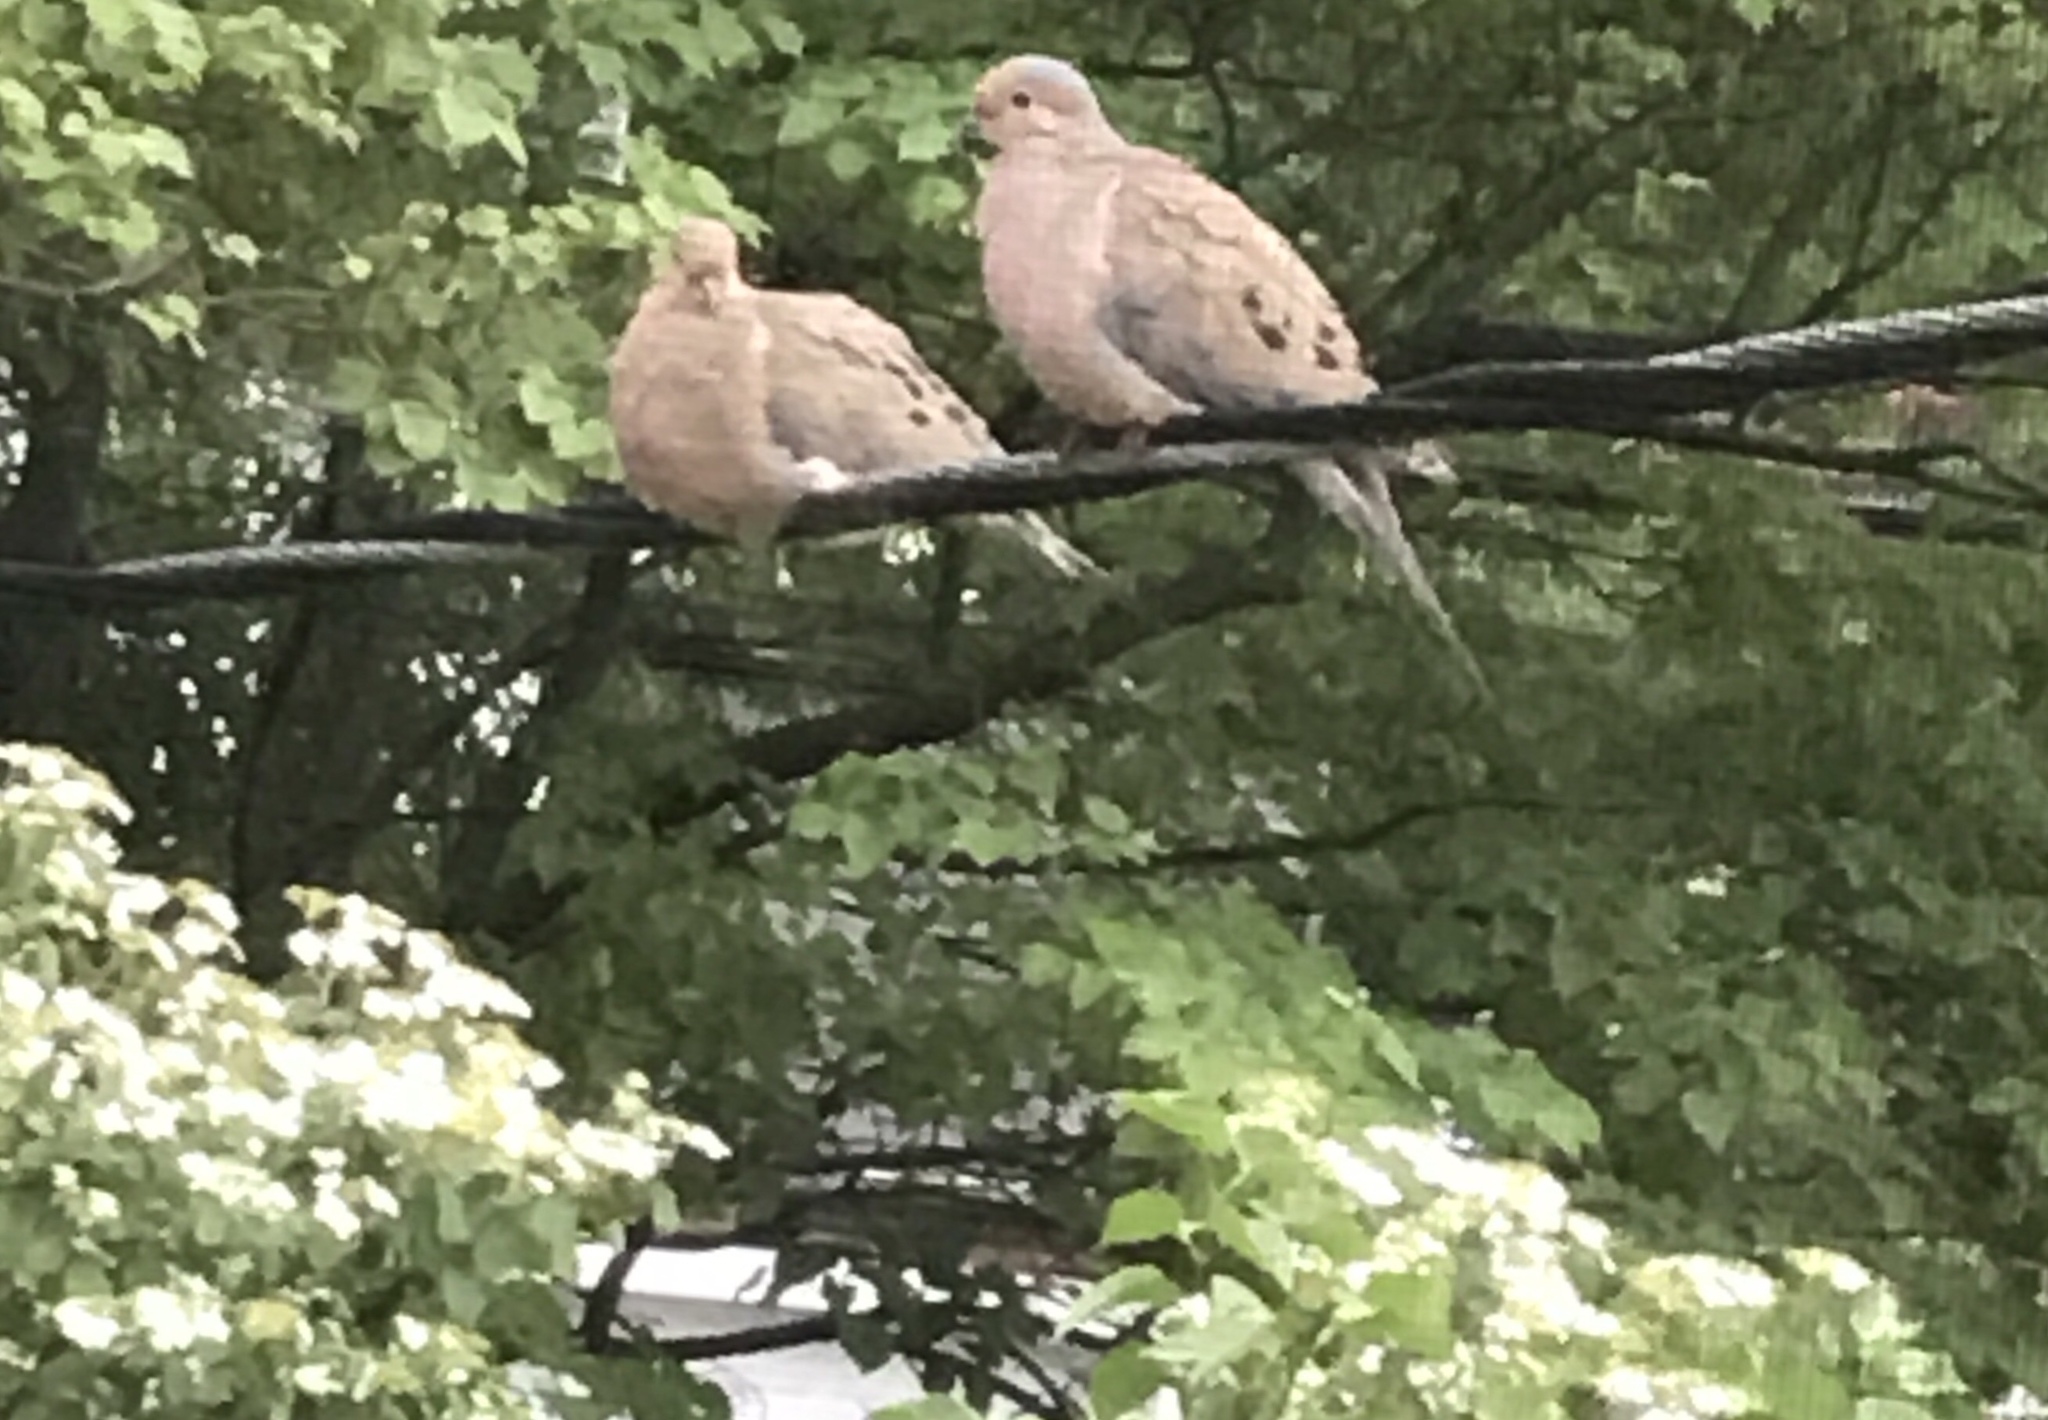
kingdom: Animalia
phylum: Chordata
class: Aves
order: Columbiformes
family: Columbidae
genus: Zenaida
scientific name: Zenaida macroura
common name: Mourning dove
